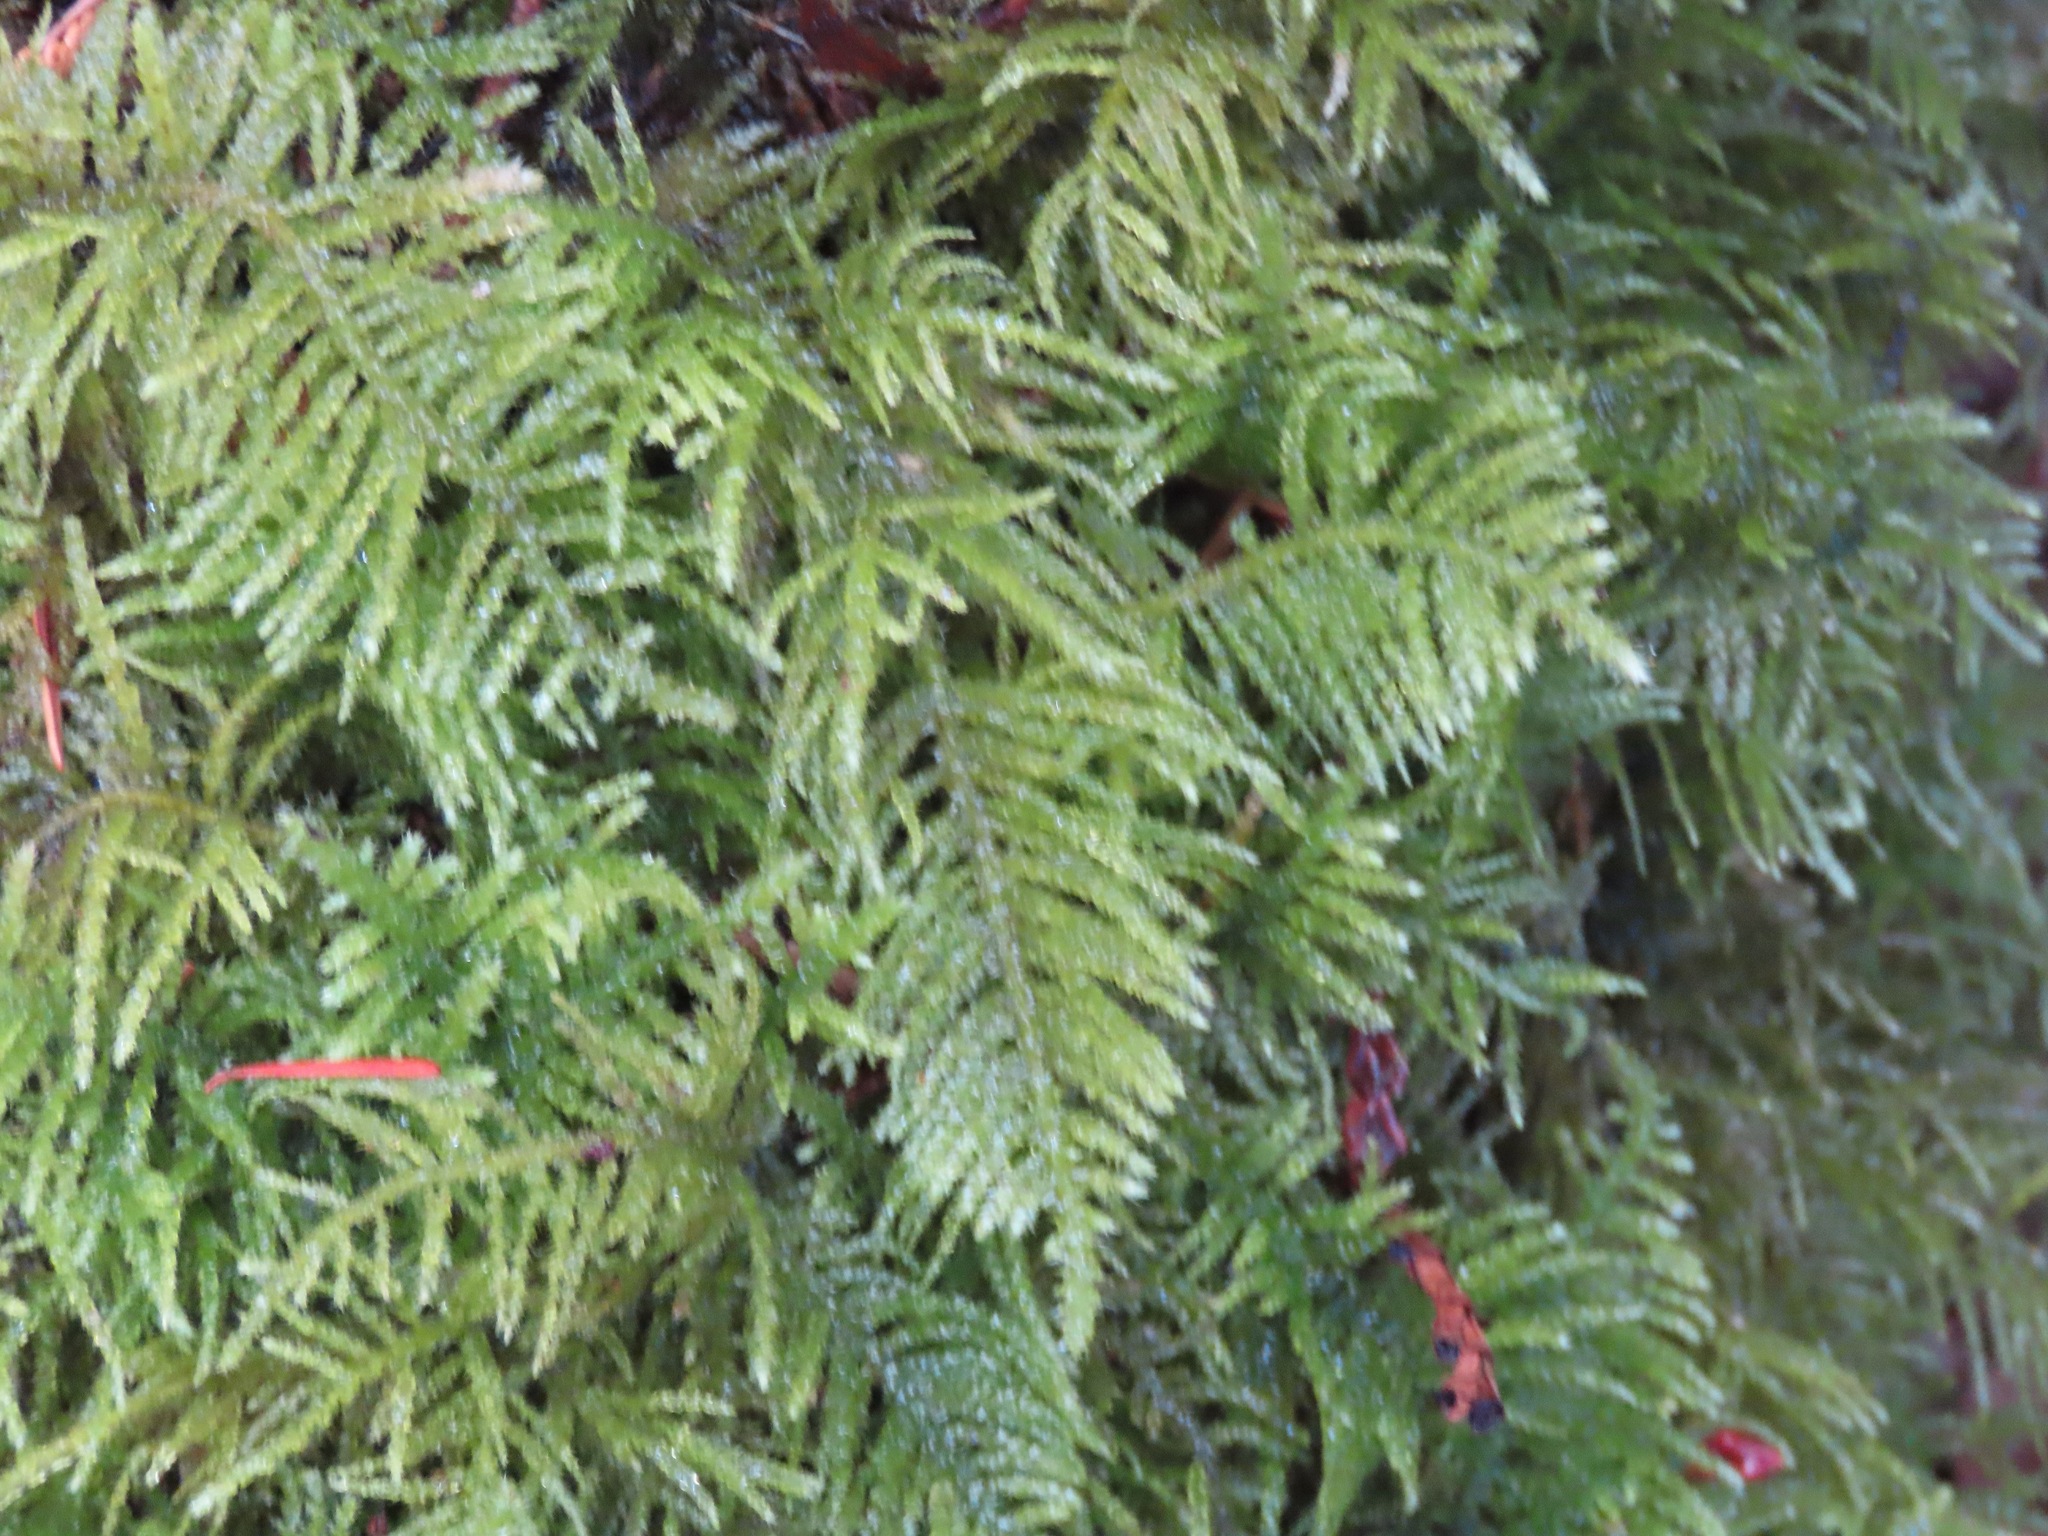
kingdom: Plantae
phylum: Bryophyta
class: Bryopsida
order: Hypnales
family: Brachytheciaceae
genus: Kindbergia
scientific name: Kindbergia oregana
